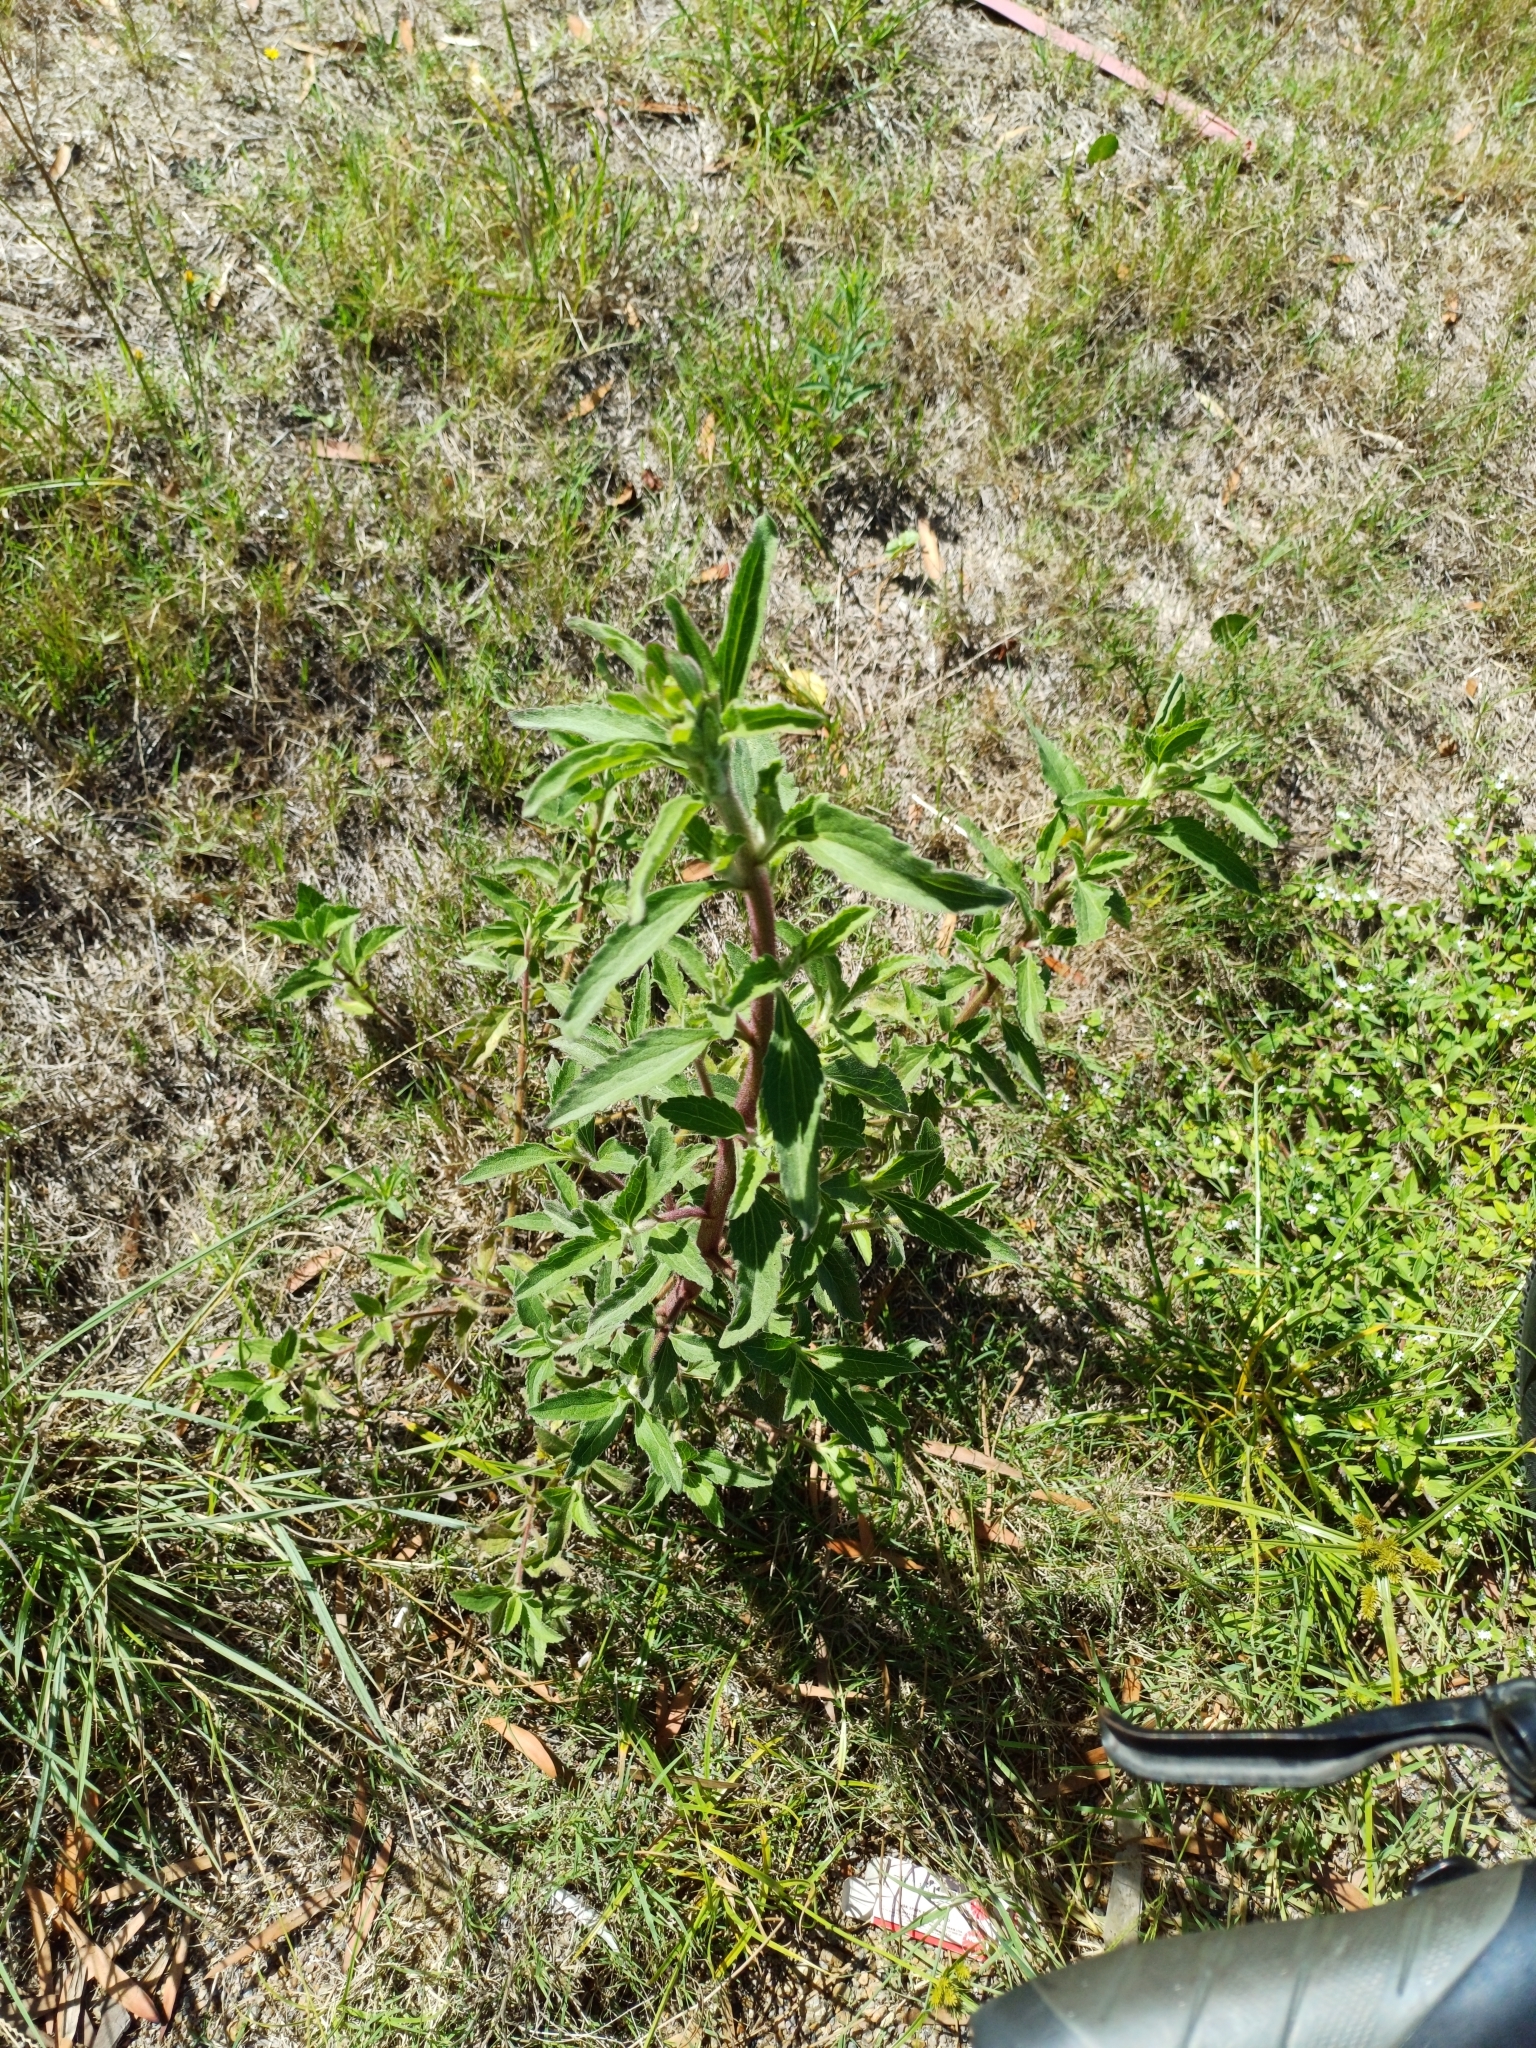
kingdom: Plantae
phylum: Tracheophyta
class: Magnoliopsida
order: Asterales
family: Asteraceae
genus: Campuloclinium
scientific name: Campuloclinium macrocephalum
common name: Pompomweed
